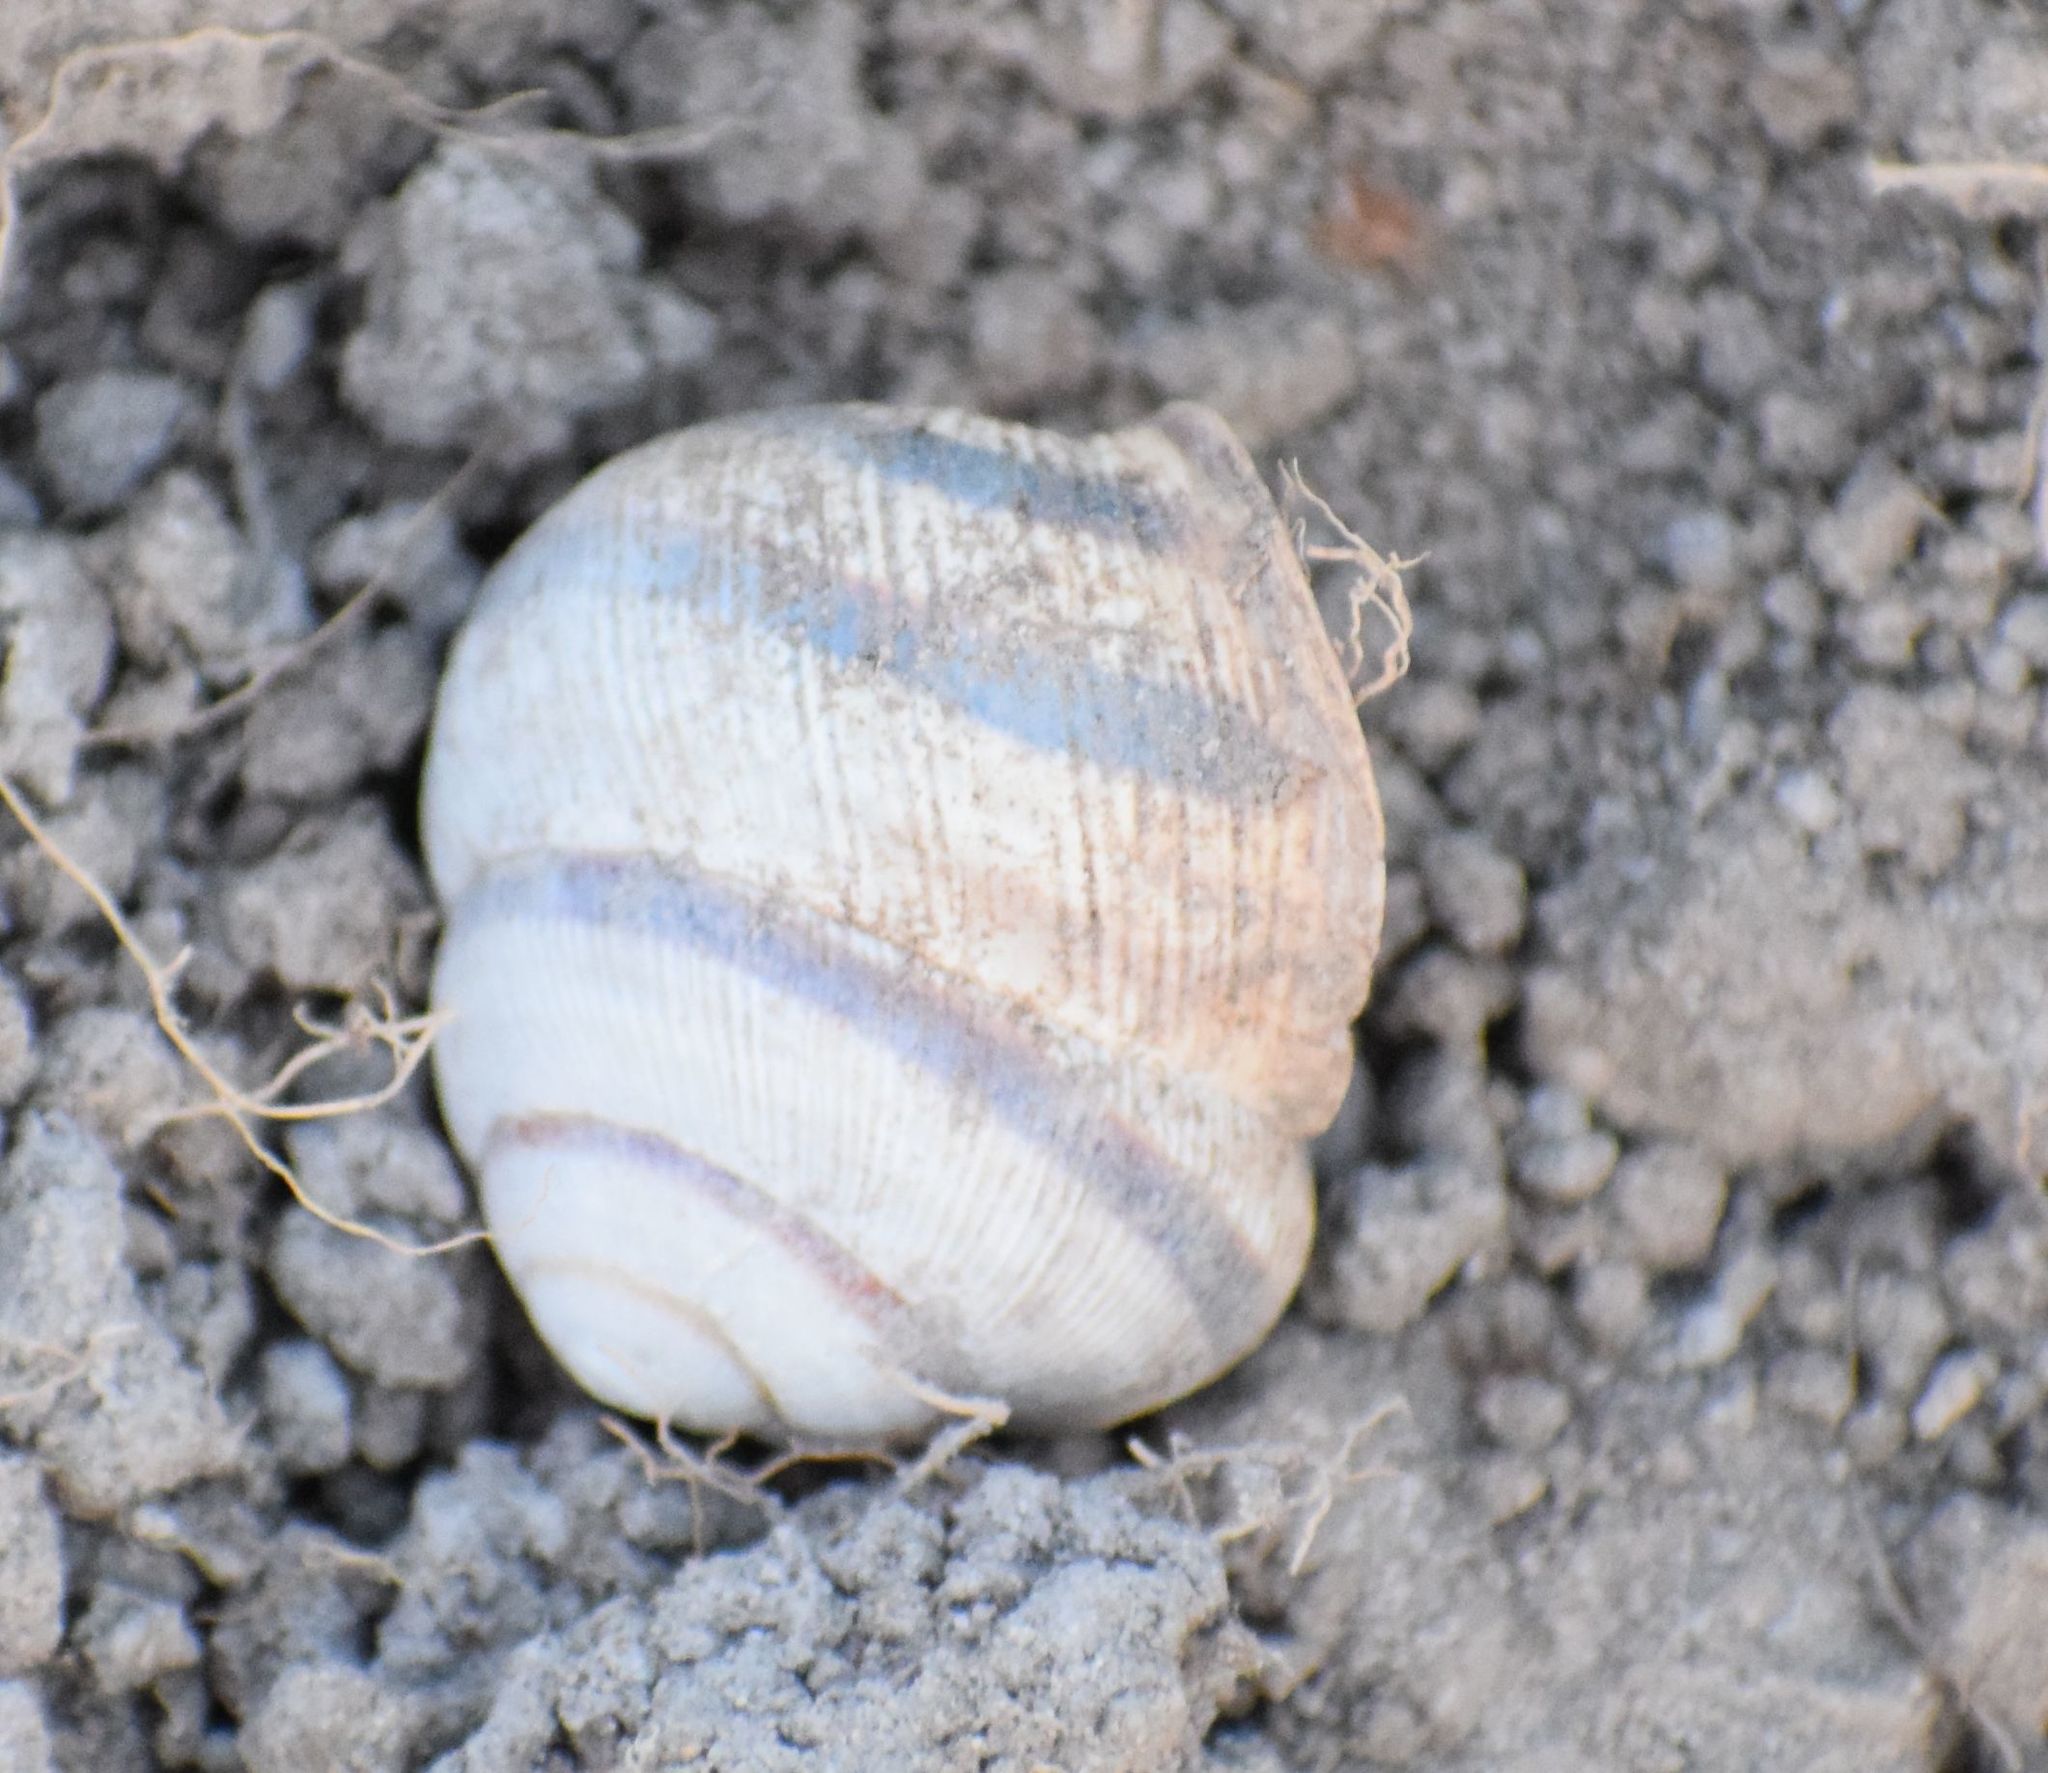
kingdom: Animalia
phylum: Mollusca
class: Gastropoda
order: Stylommatophora
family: Helicidae
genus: Caucasotachea
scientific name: Caucasotachea vindobonensis
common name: European helicid land snail
